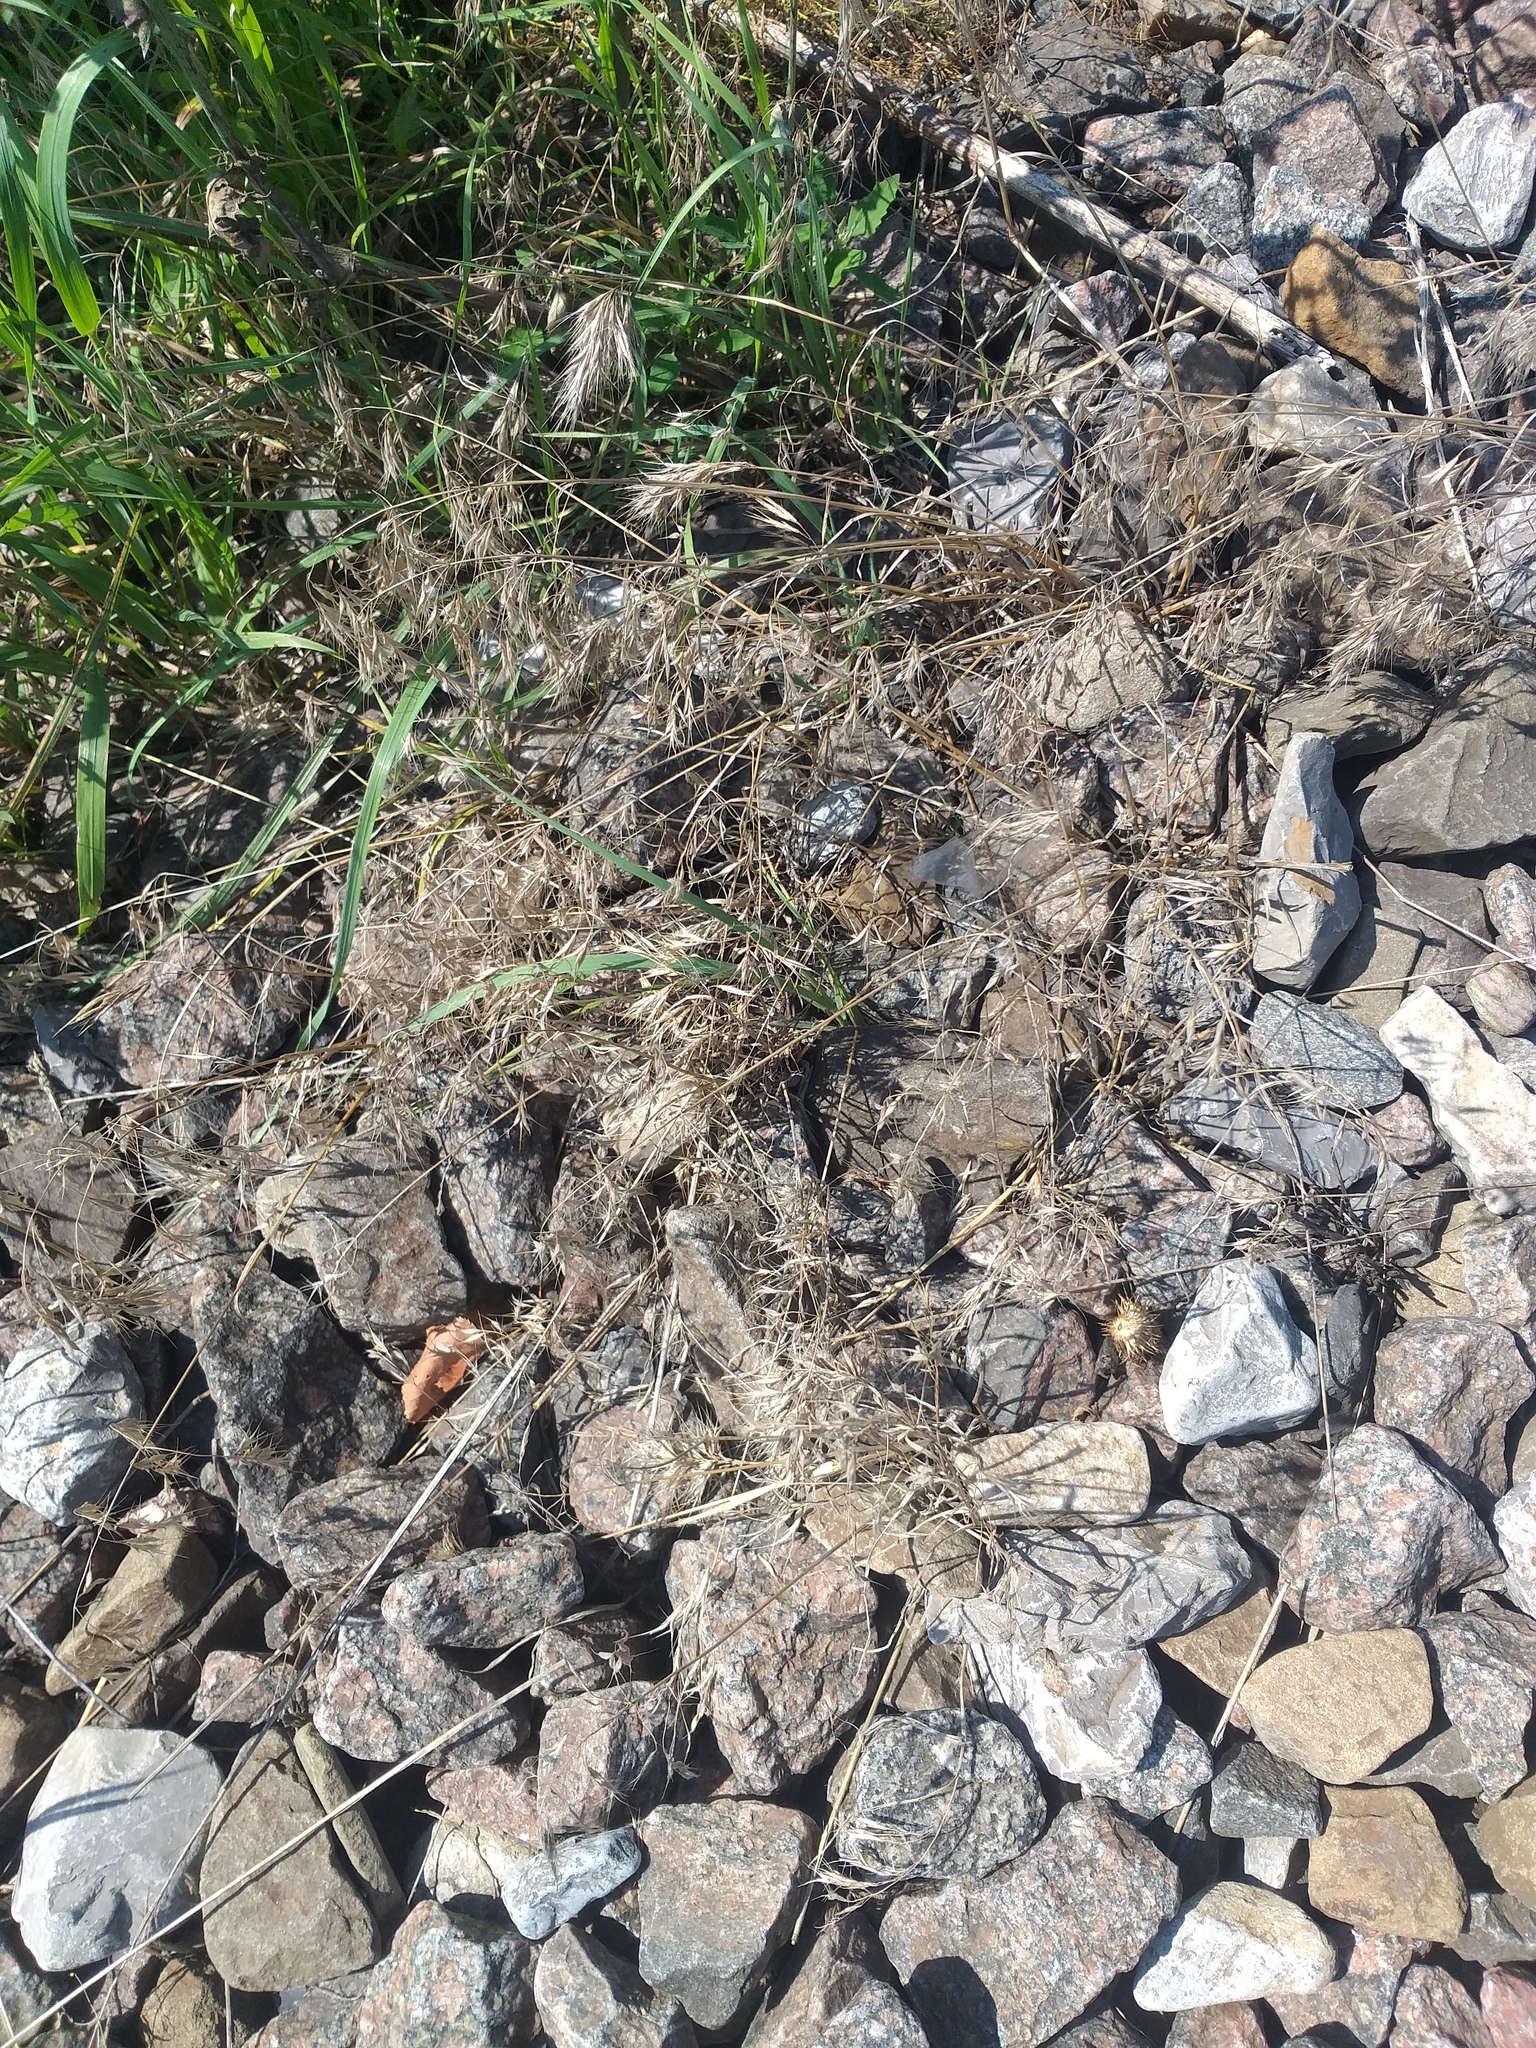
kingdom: Plantae
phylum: Tracheophyta
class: Liliopsida
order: Poales
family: Poaceae
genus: Bromus
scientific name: Bromus tectorum
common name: Cheatgrass
